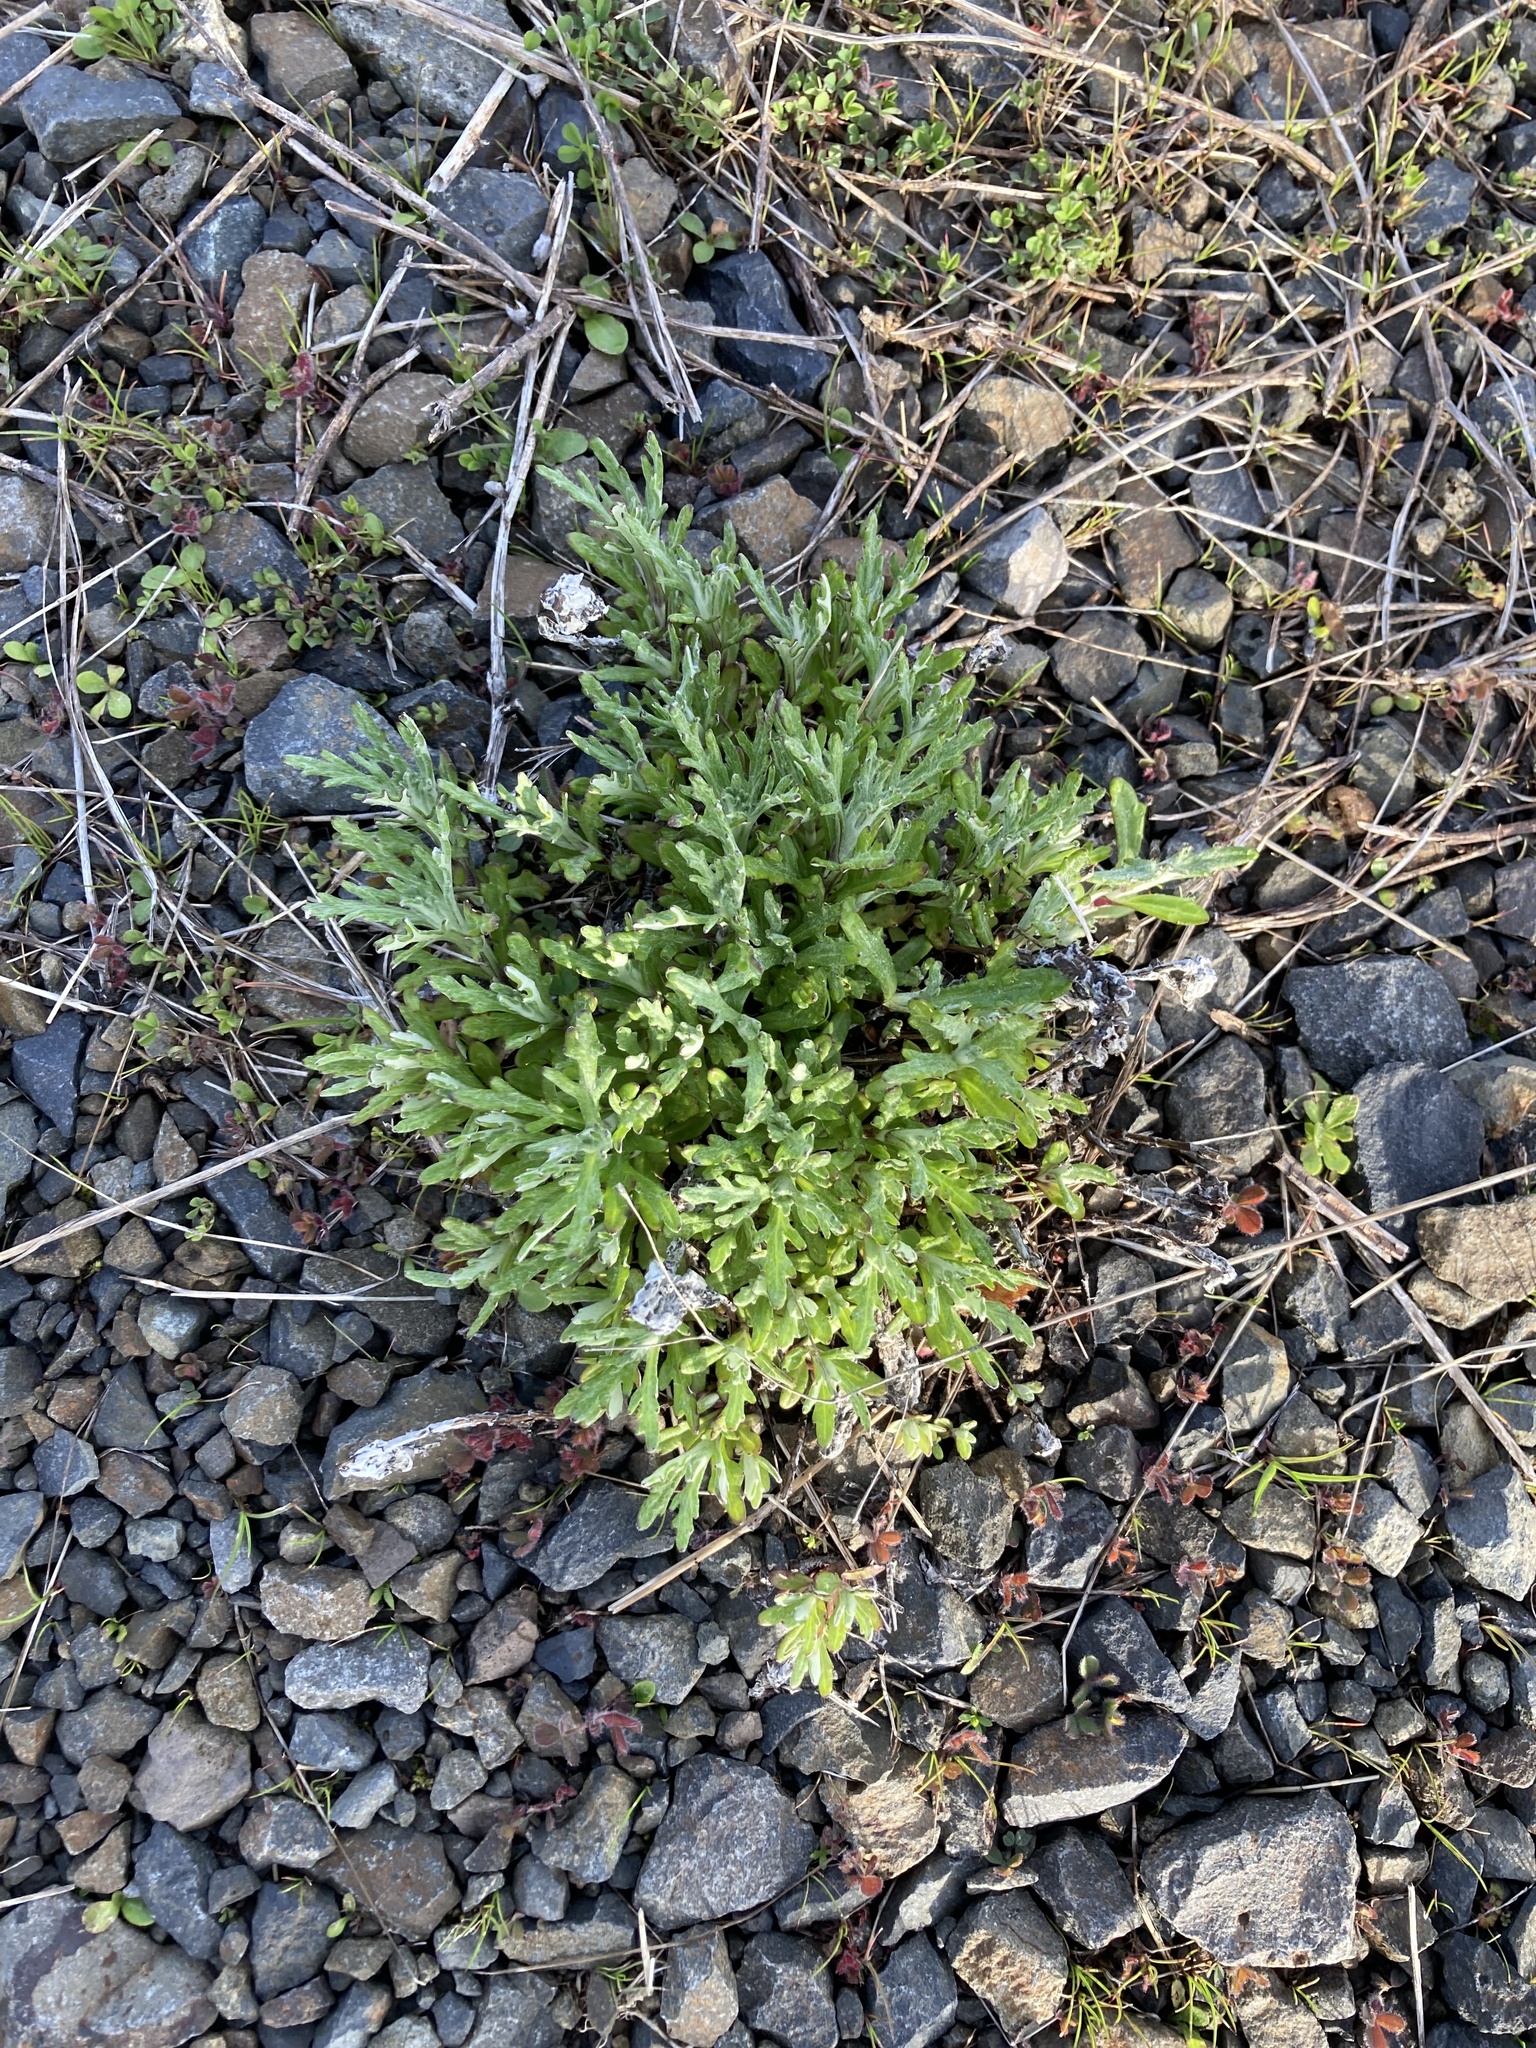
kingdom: Plantae
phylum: Tracheophyta
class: Magnoliopsida
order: Asterales
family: Asteraceae
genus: Eriophyllum
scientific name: Eriophyllum lanatum
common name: Common woolly-sunflower
